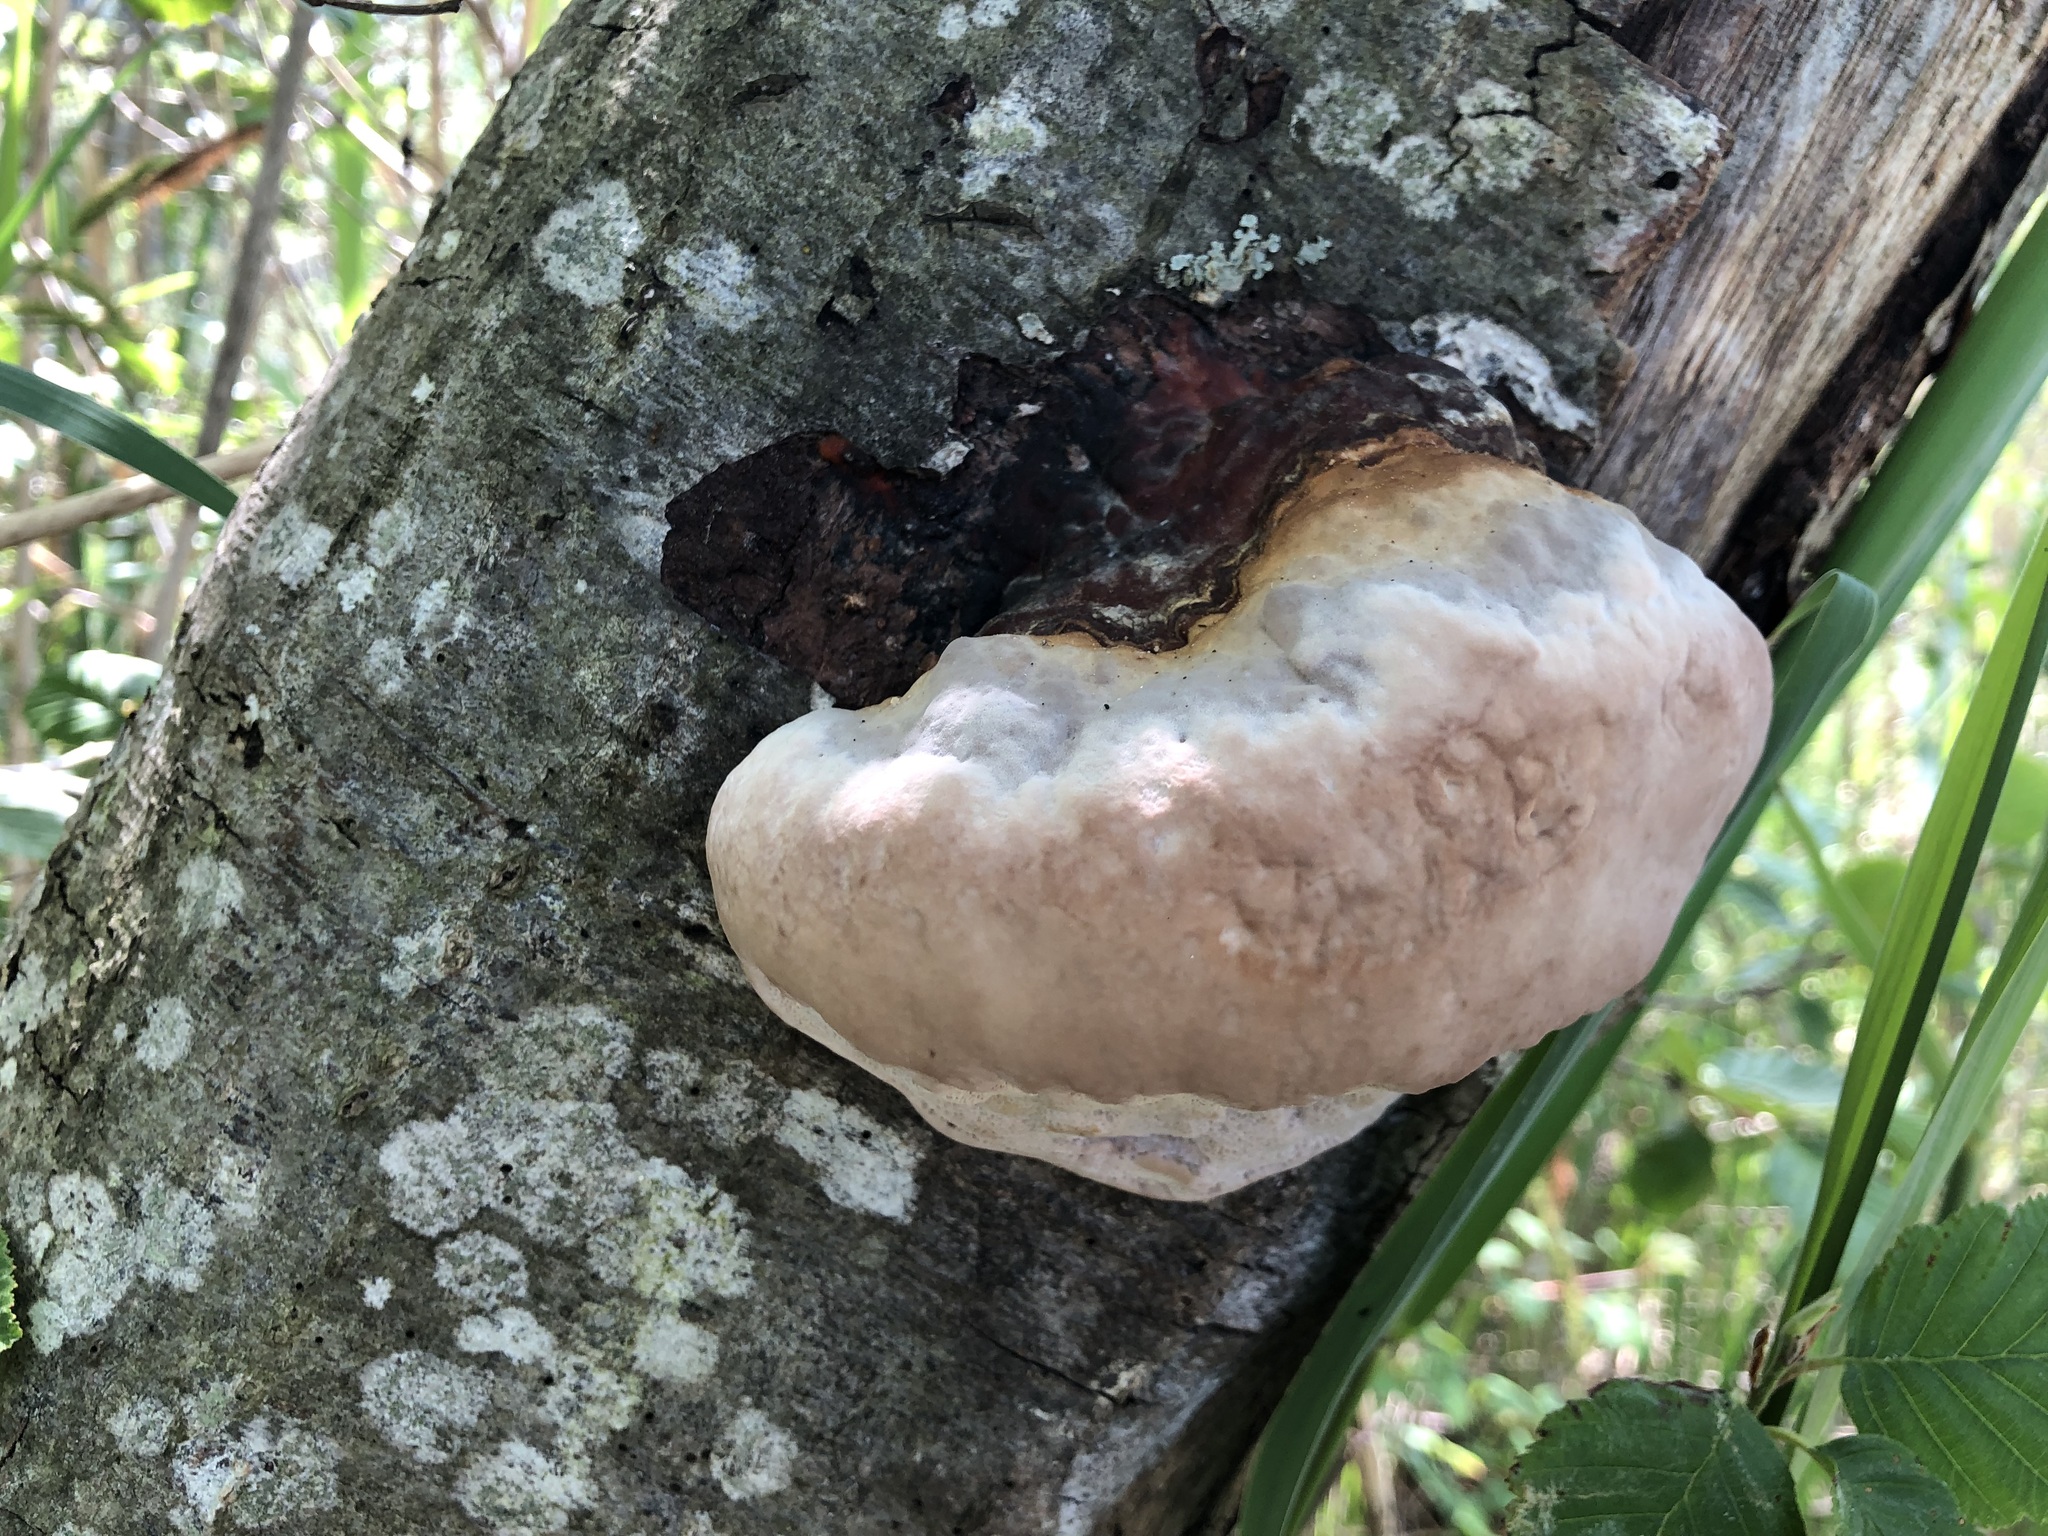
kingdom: Fungi
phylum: Basidiomycota
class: Agaricomycetes
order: Polyporales
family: Fomitopsidaceae
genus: Fomitopsis
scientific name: Fomitopsis pinicola
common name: Red-belted bracket
